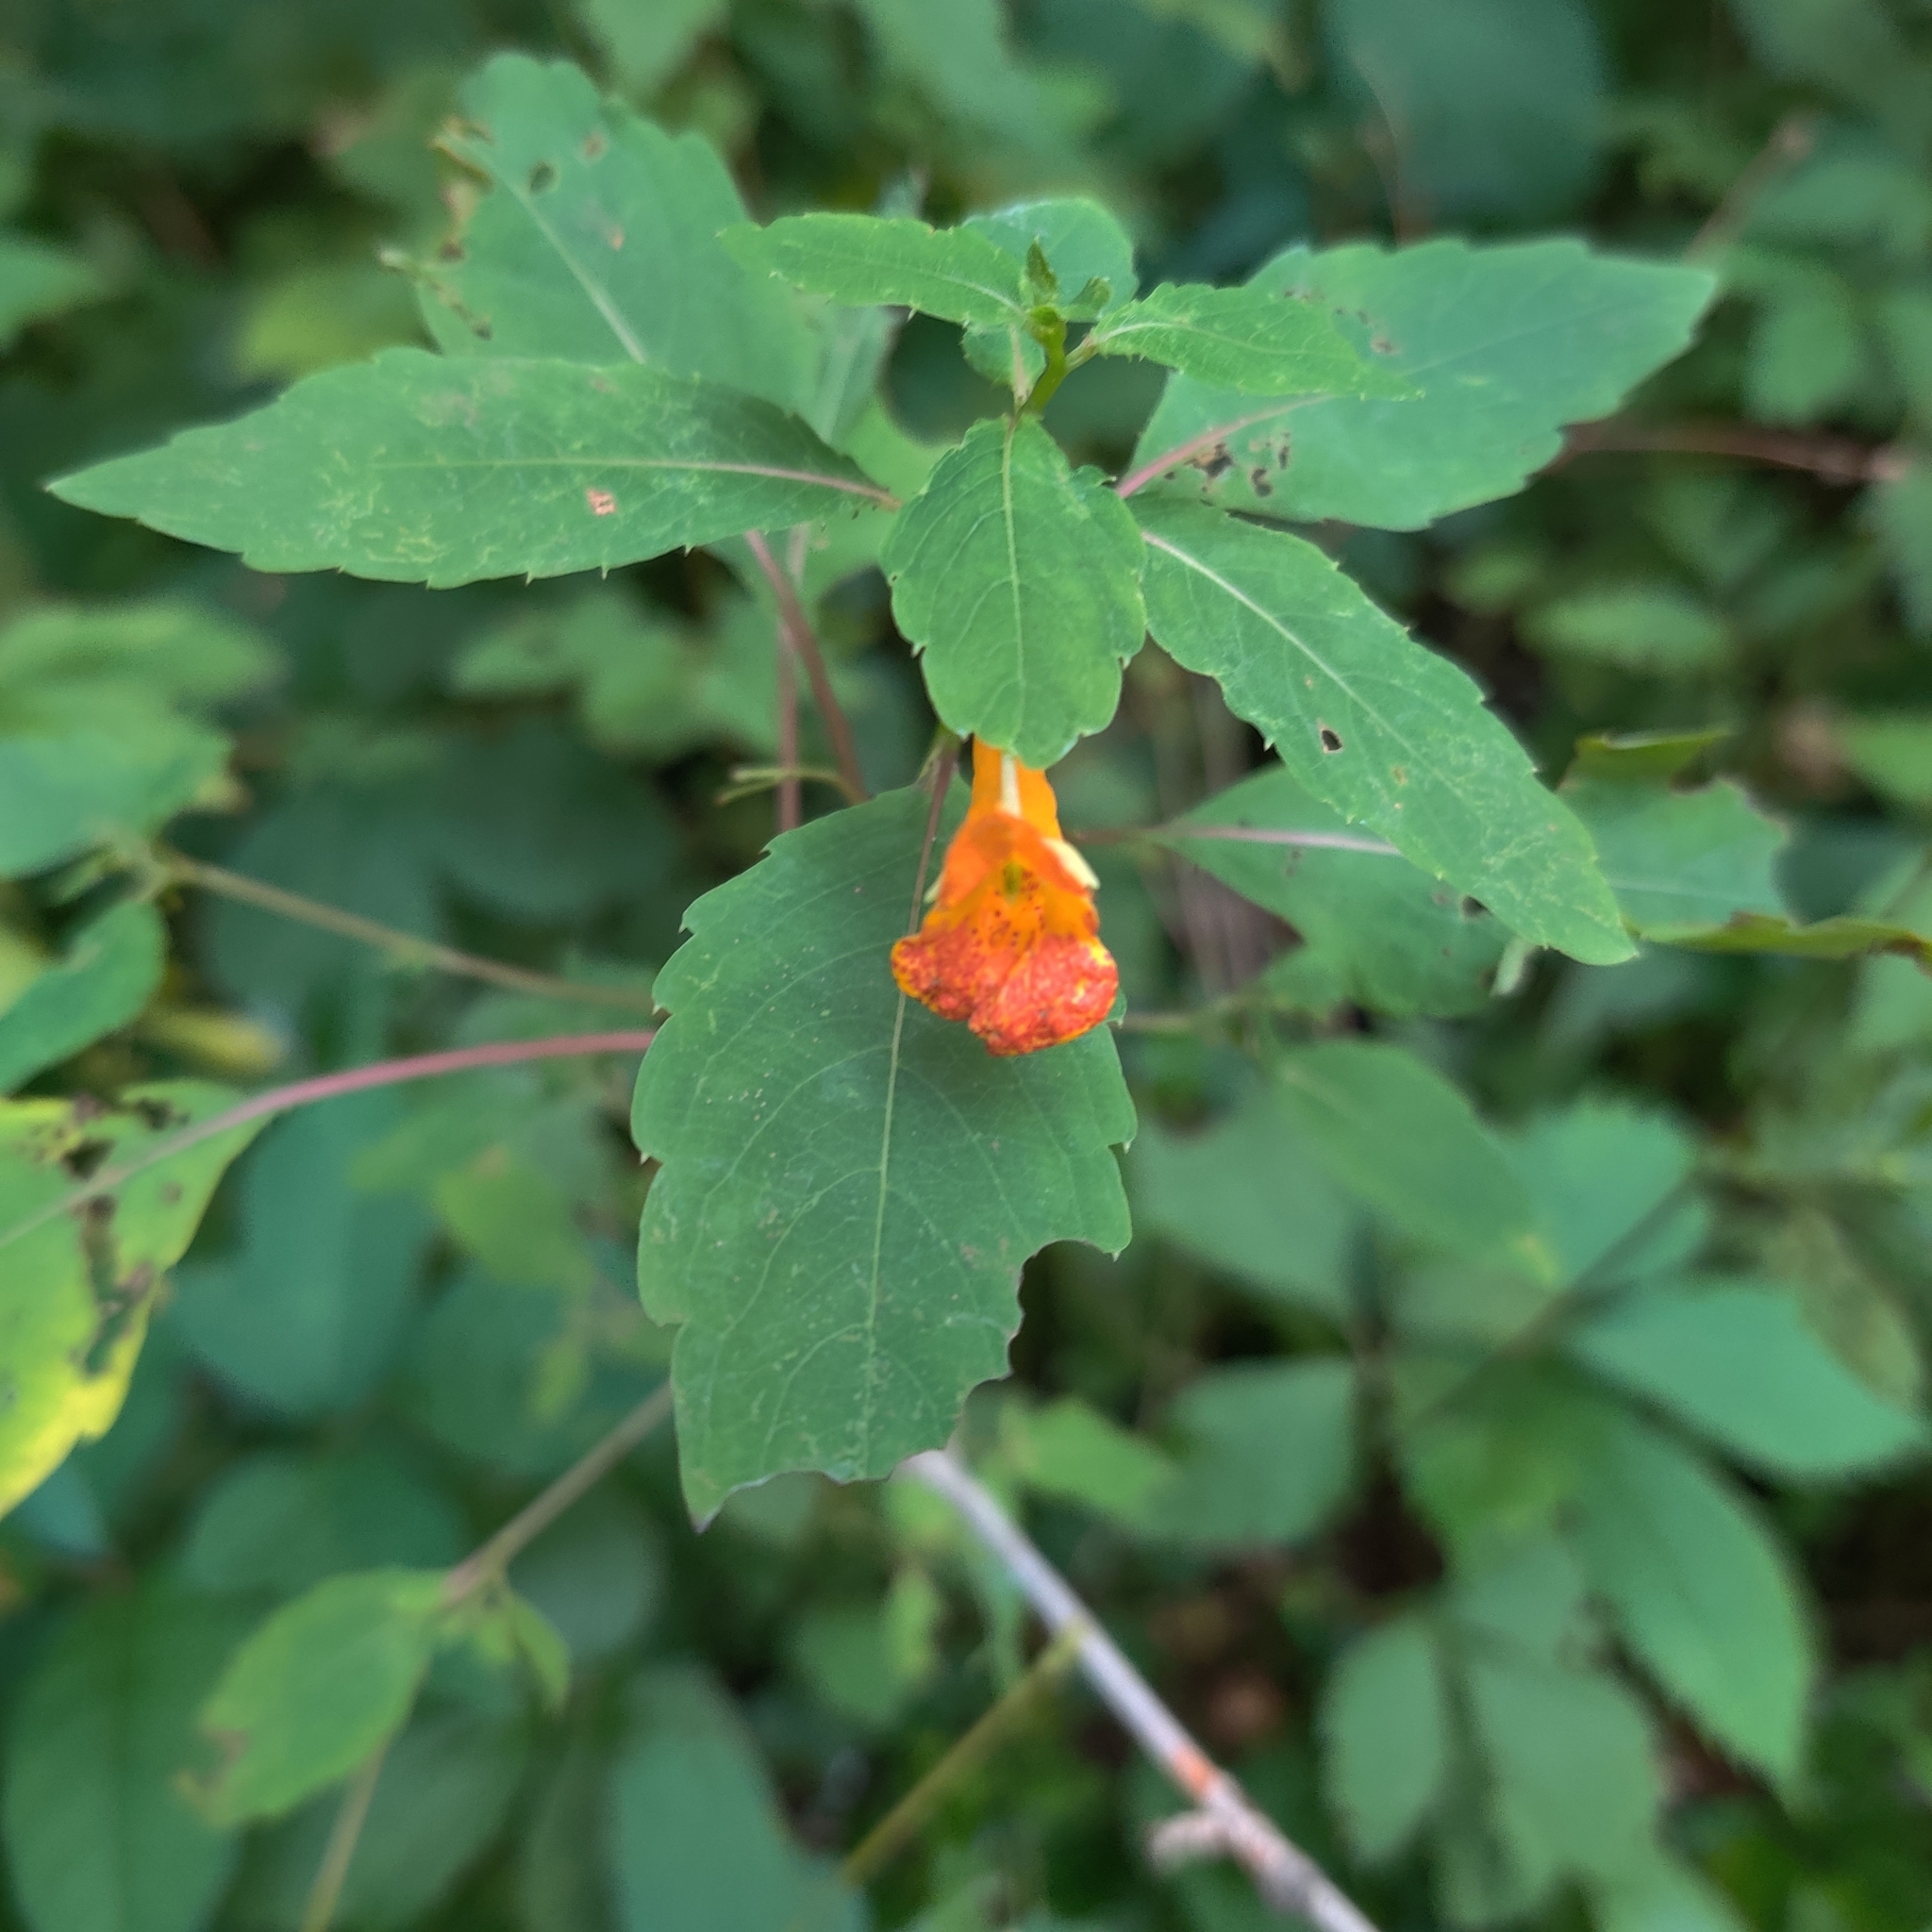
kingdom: Plantae
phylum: Tracheophyta
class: Magnoliopsida
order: Ericales
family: Balsaminaceae
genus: Impatiens
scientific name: Impatiens capensis
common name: Orange balsam
